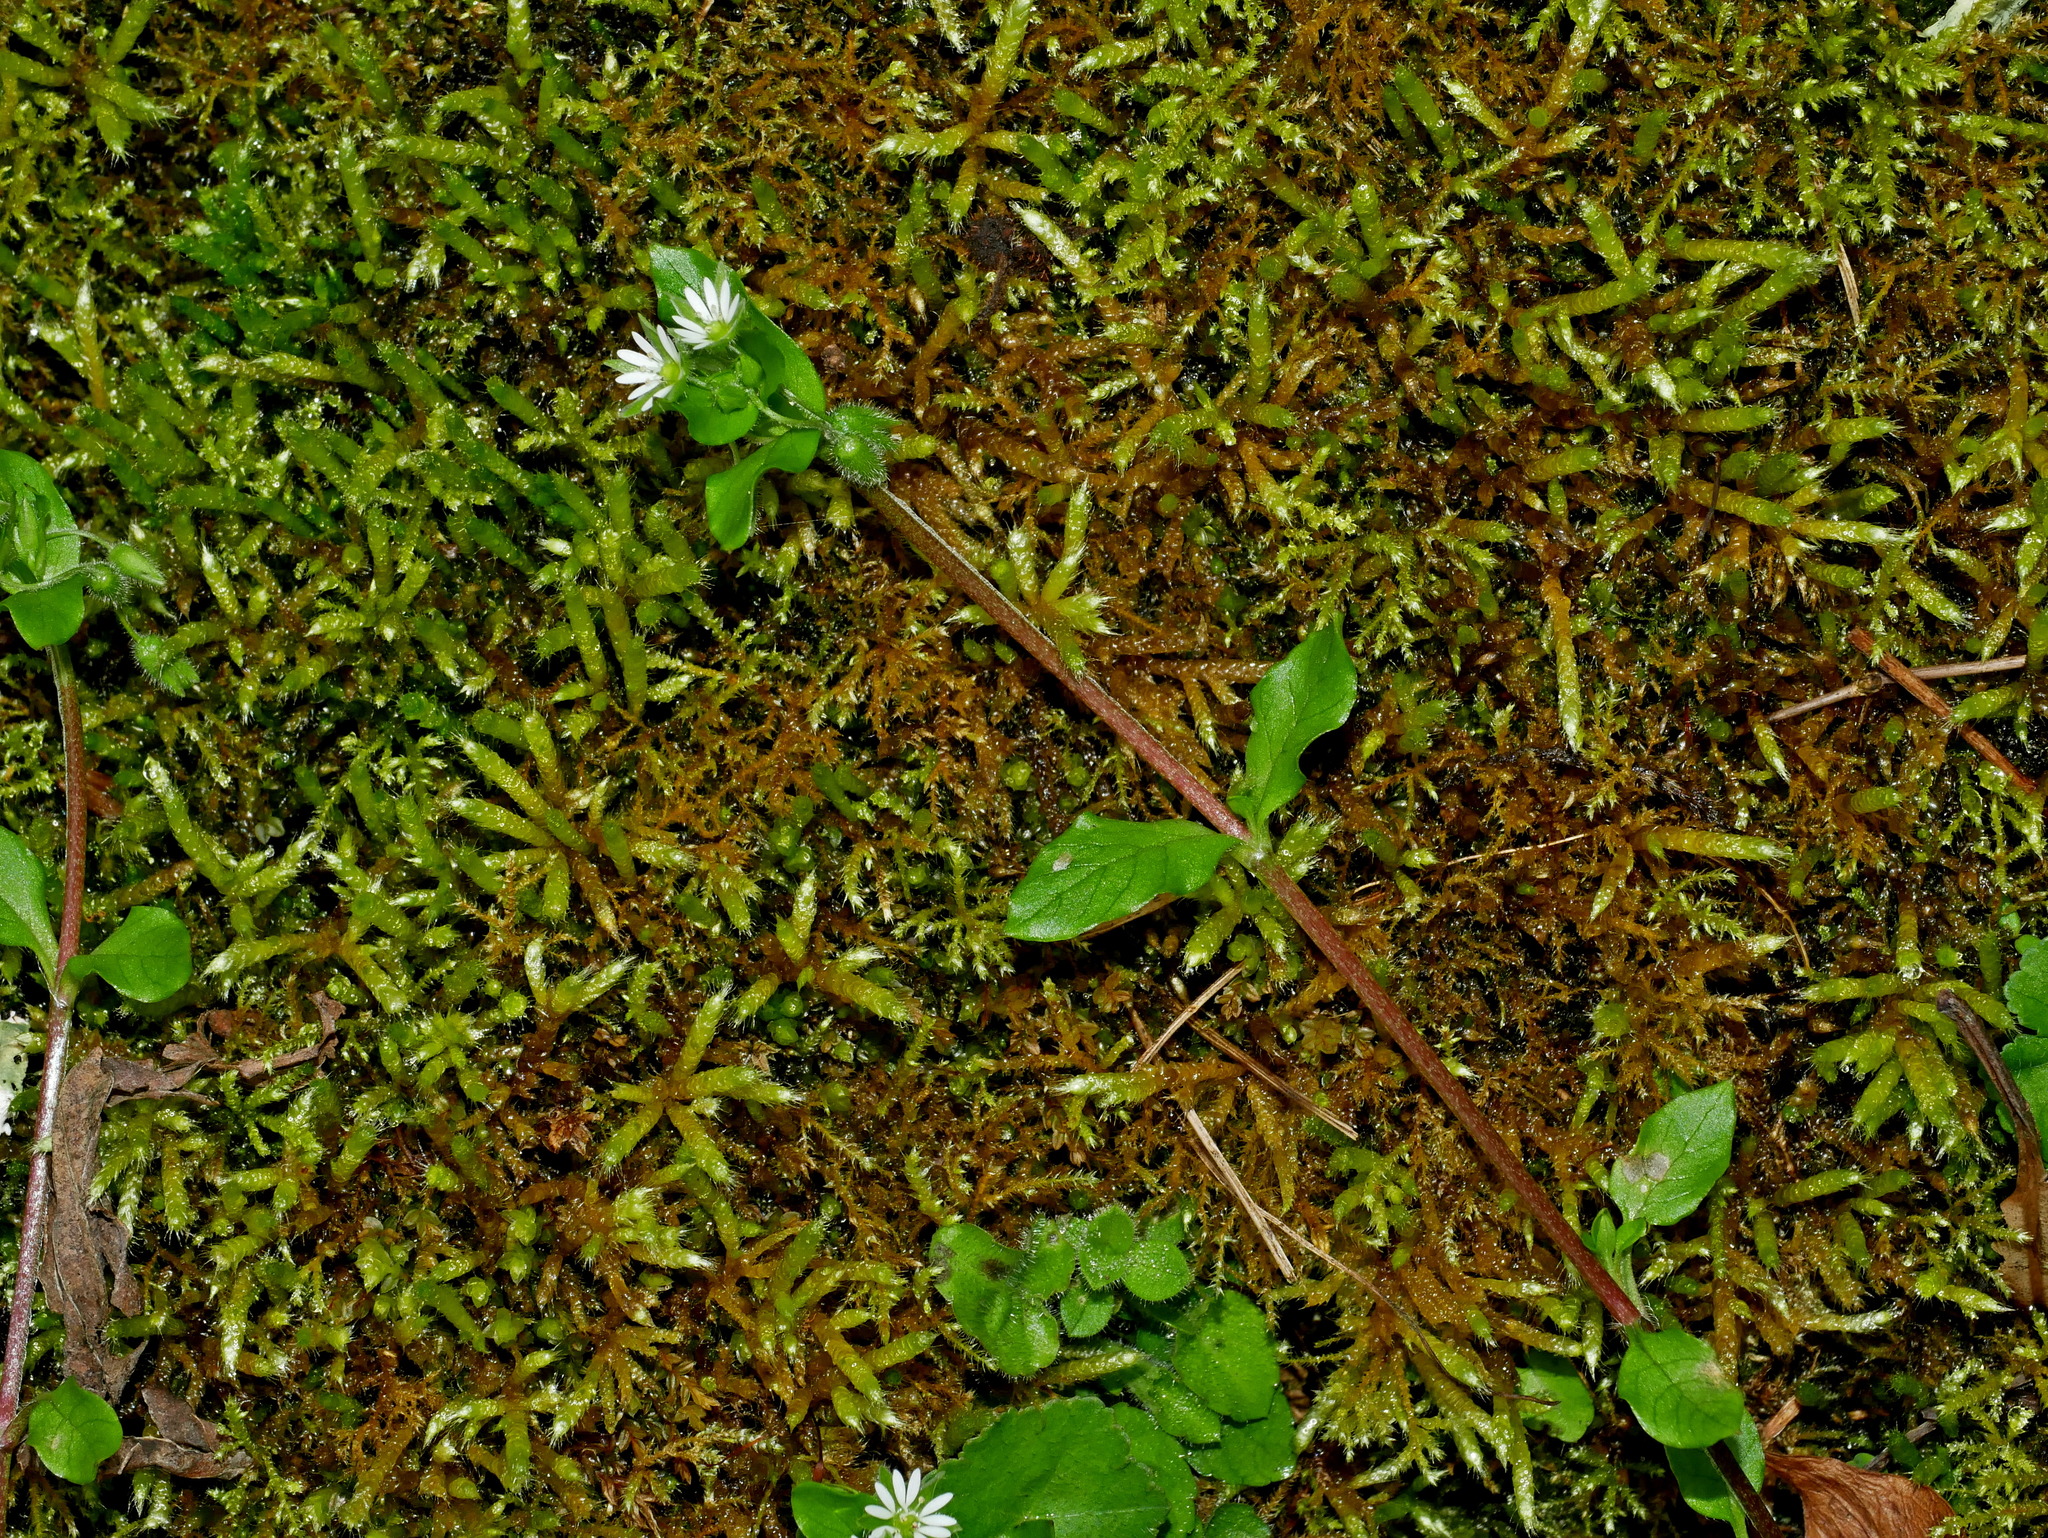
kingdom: Plantae
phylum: Tracheophyta
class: Magnoliopsida
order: Caryophyllales
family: Caryophyllaceae
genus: Stellaria
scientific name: Stellaria media
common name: Common chickweed
